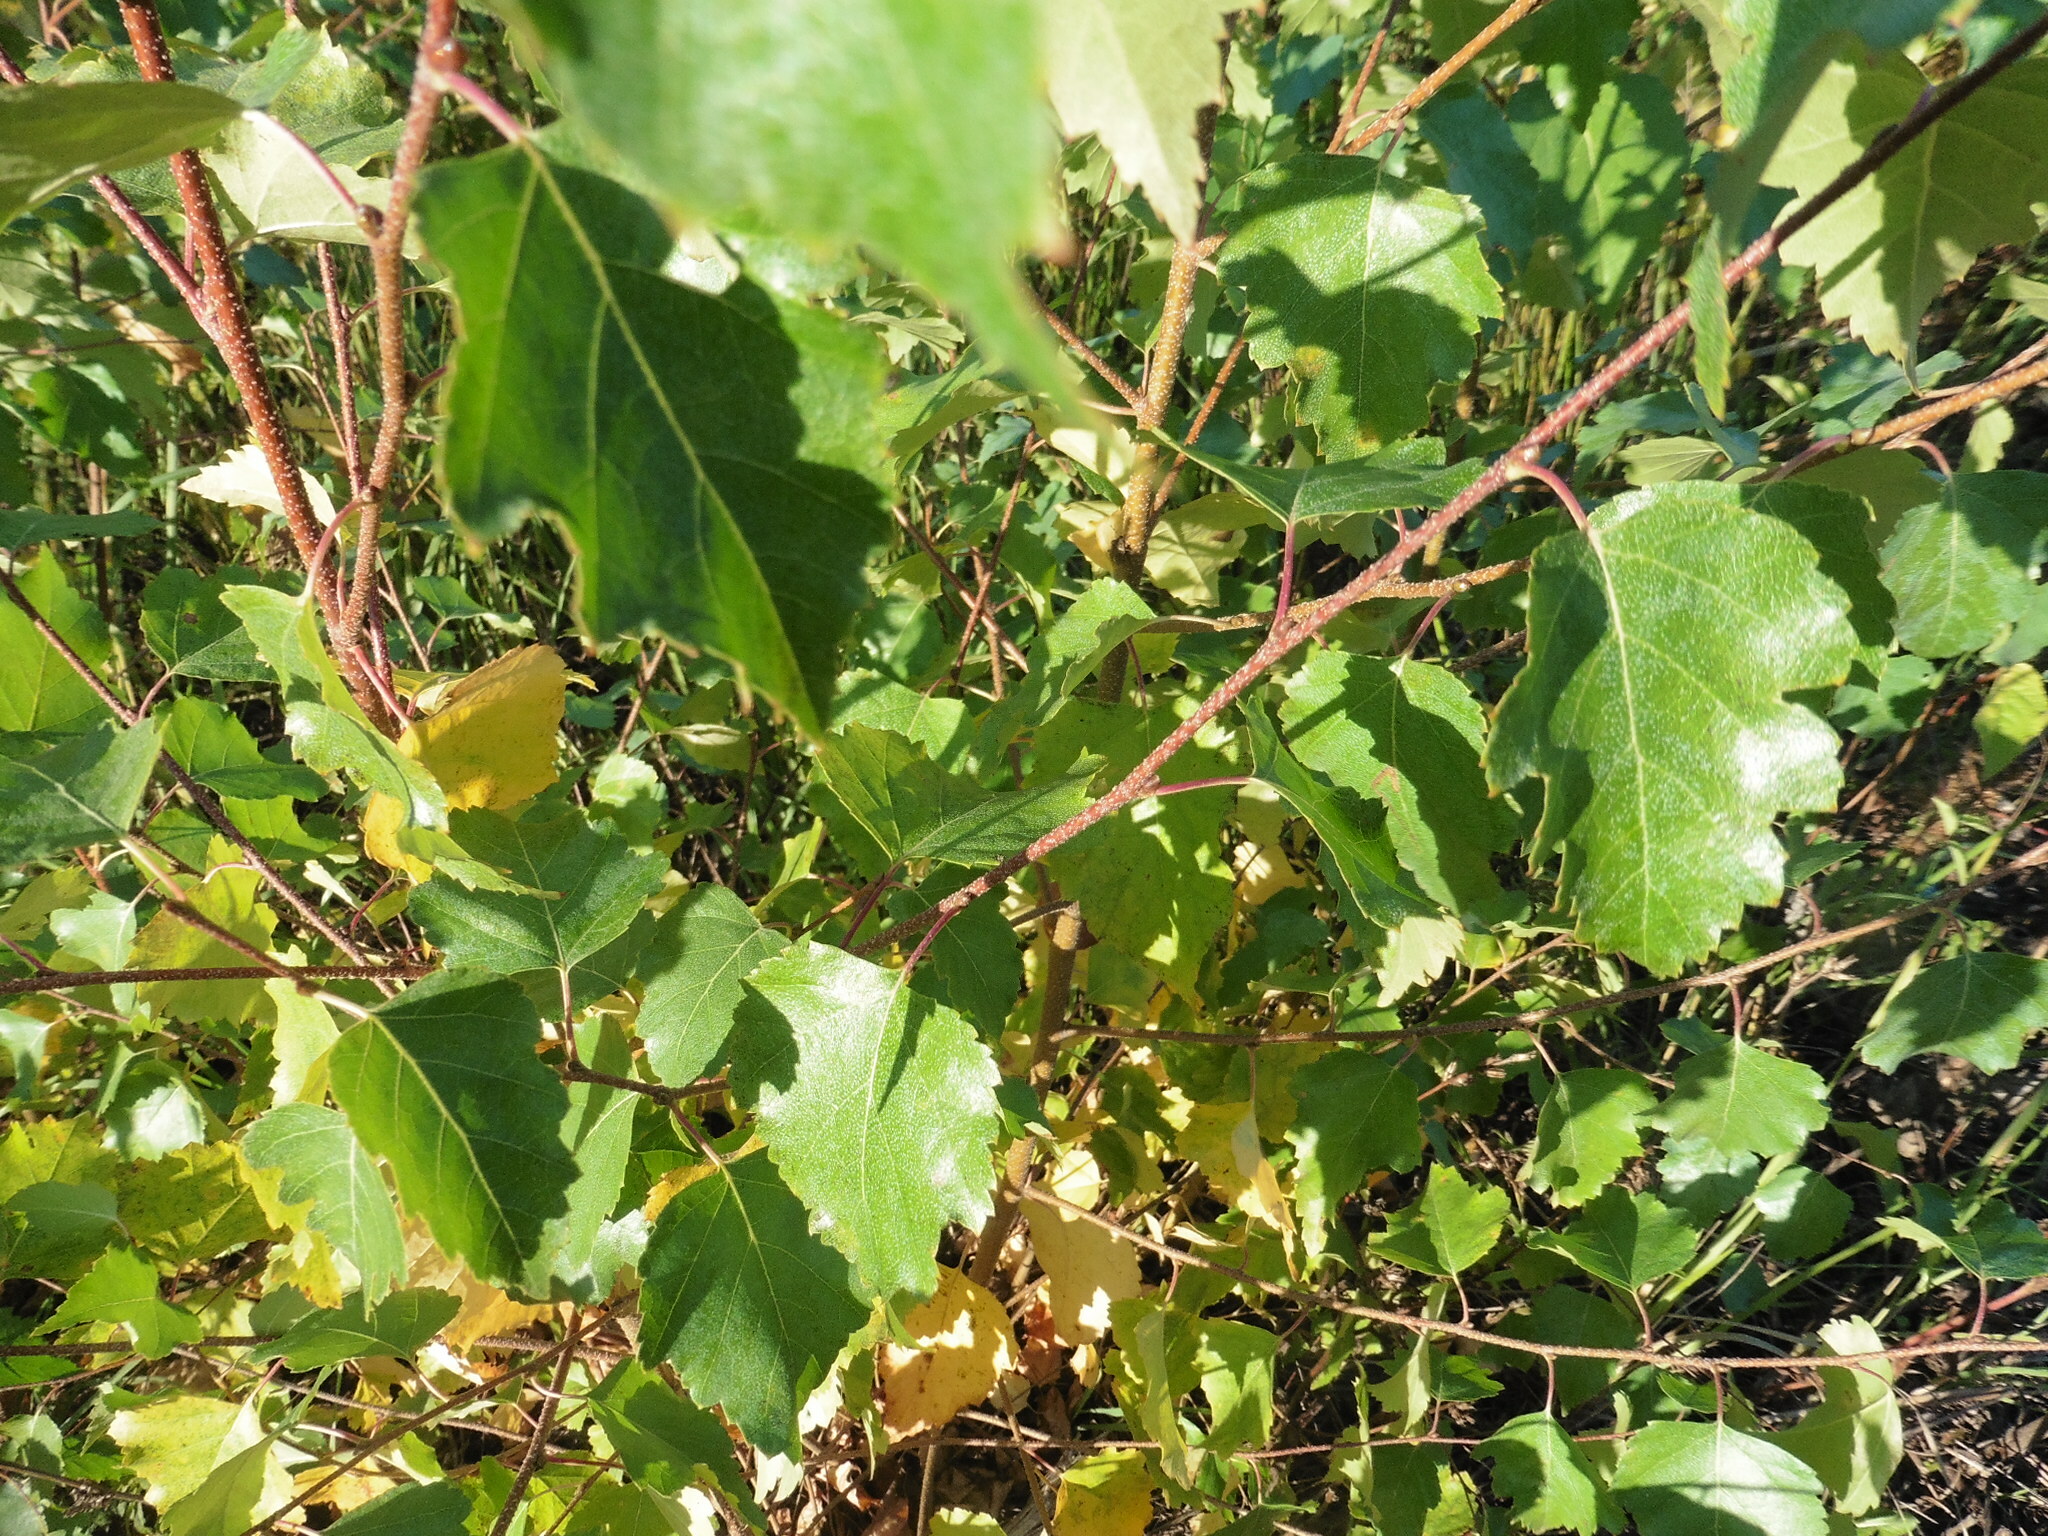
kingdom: Plantae
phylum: Tracheophyta
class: Magnoliopsida
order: Fagales
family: Betulaceae
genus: Betula
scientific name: Betula pendula
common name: Silver birch
